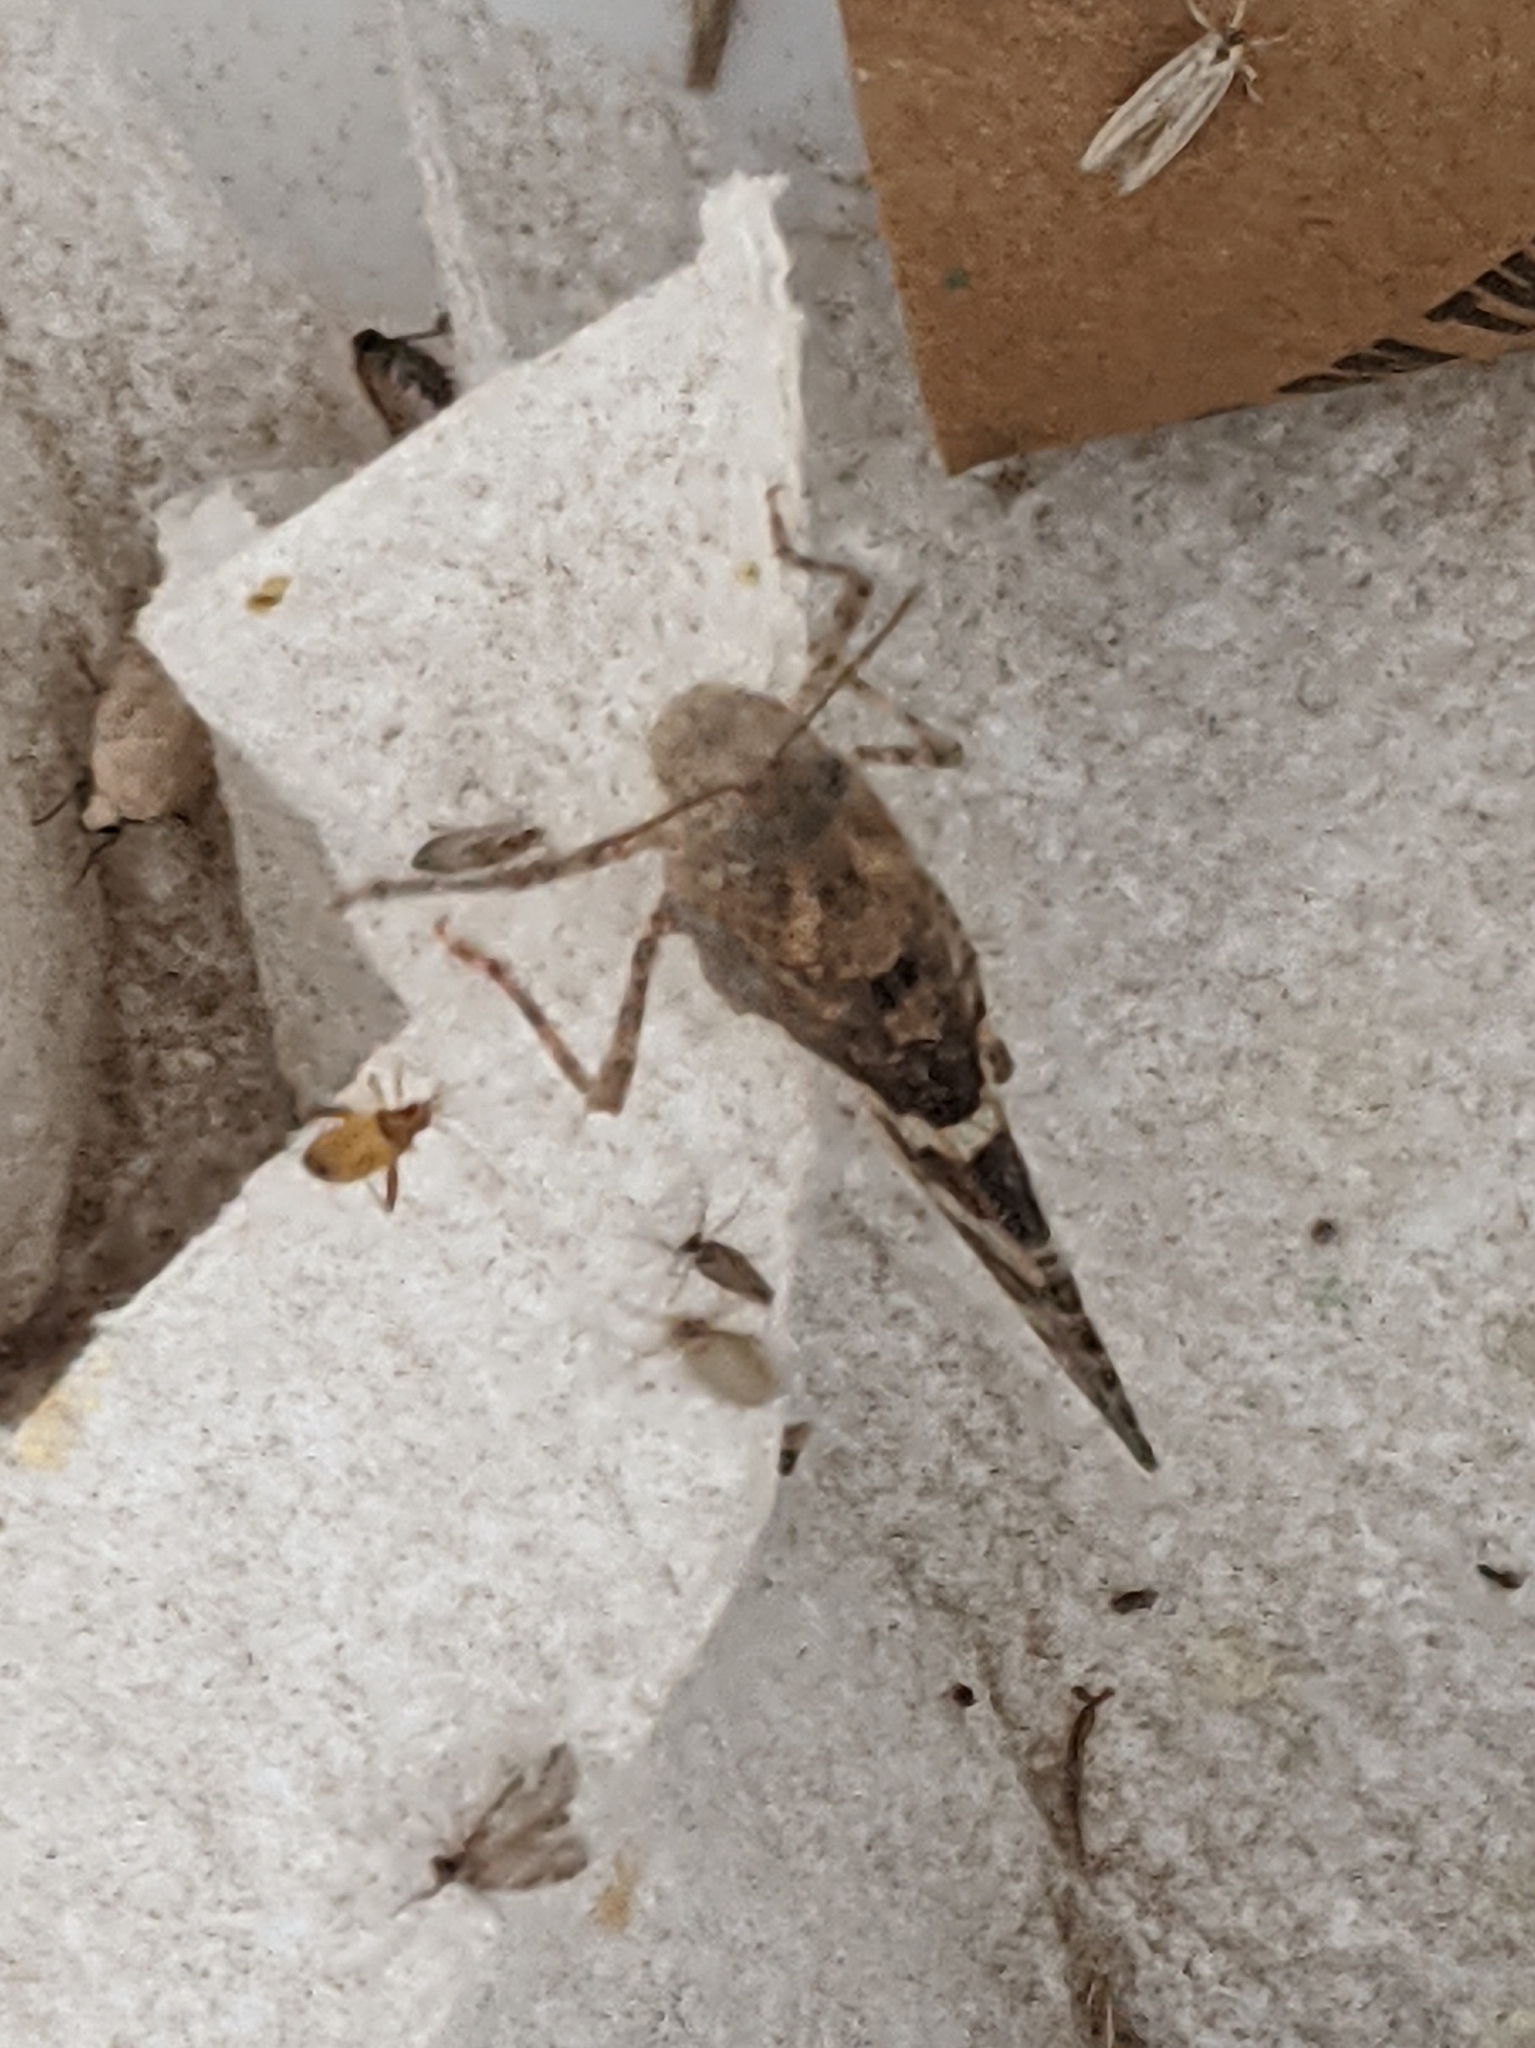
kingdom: Animalia
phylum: Arthropoda
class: Insecta
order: Orthoptera
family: Acrididae
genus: Trimerotropis
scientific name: Trimerotropis pallidipennis
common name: Pallid-winged grasshopper
